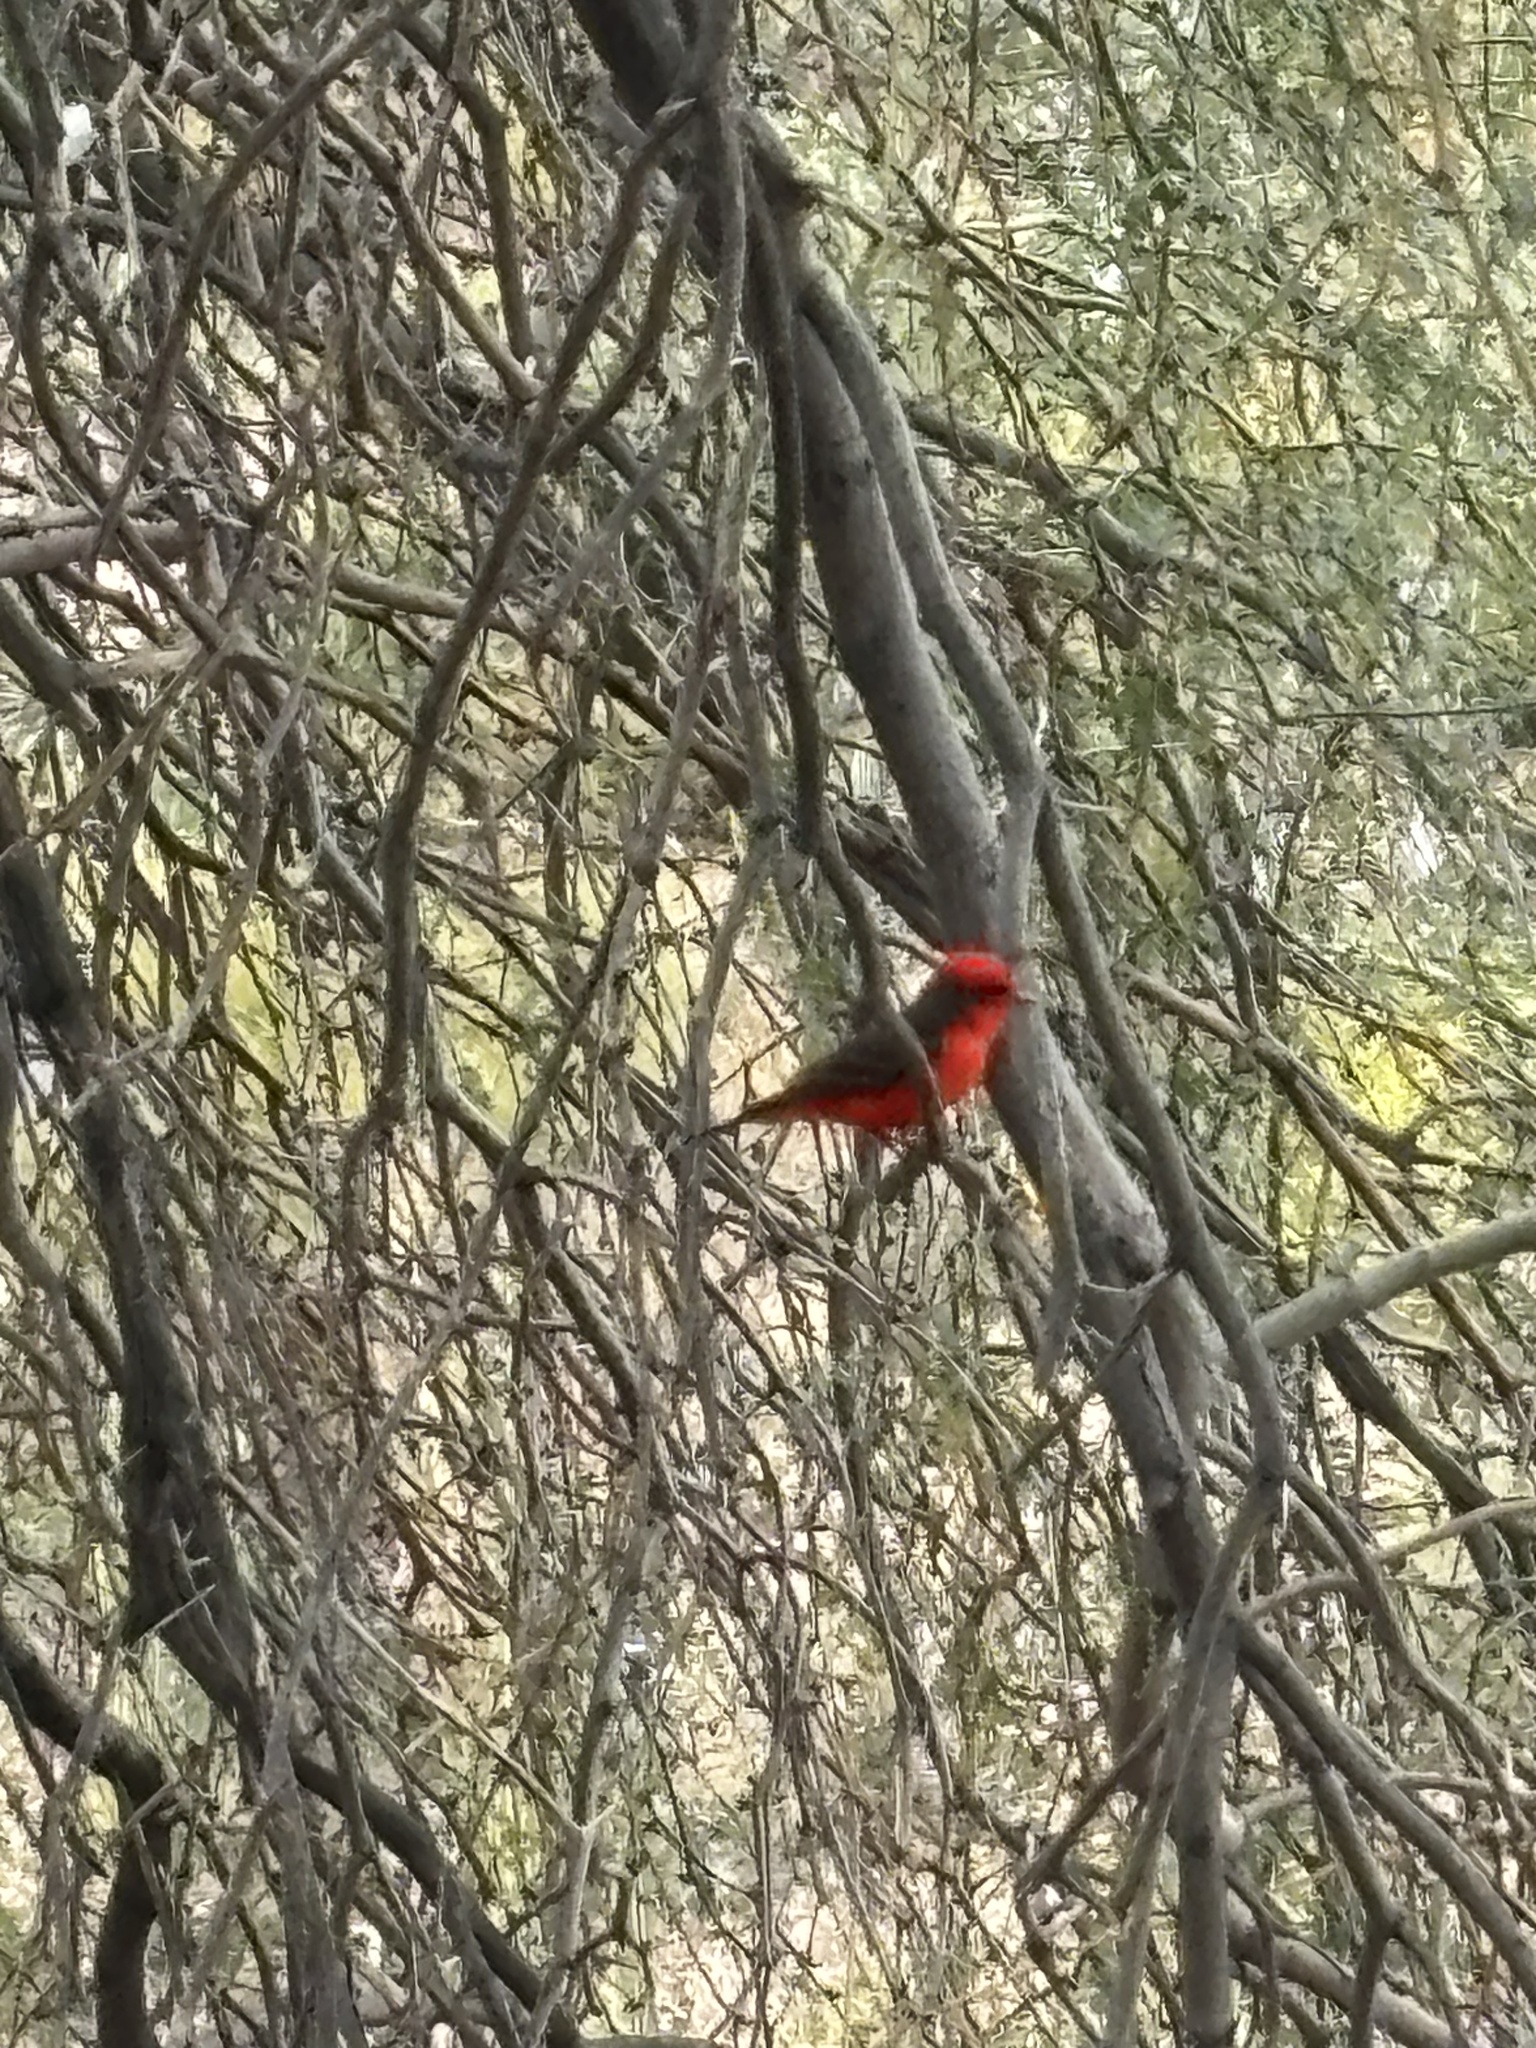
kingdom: Animalia
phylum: Chordata
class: Aves
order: Passeriformes
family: Tyrannidae
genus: Pyrocephalus
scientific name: Pyrocephalus rubinus
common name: Vermilion flycatcher
